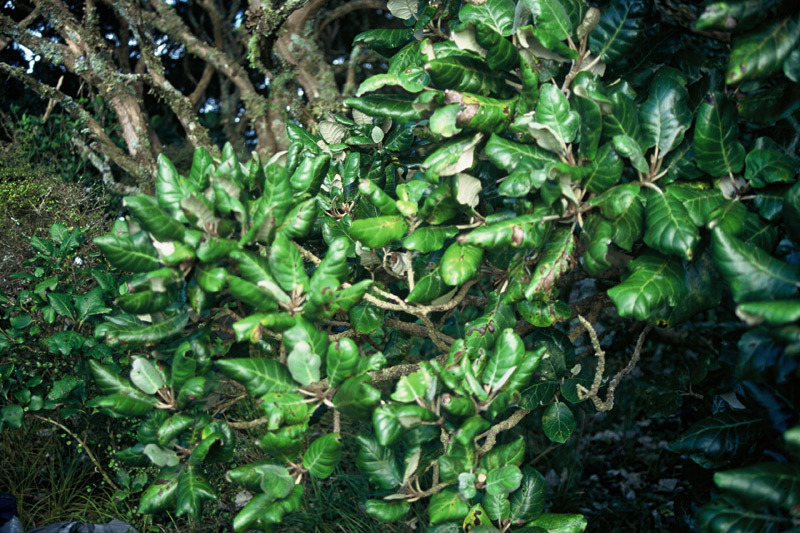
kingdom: Plantae
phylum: Tracheophyta
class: Magnoliopsida
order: Asterales
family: Asteraceae
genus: Brachyglottis
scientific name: Brachyglottis arborescens
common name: Three kings rangiora
